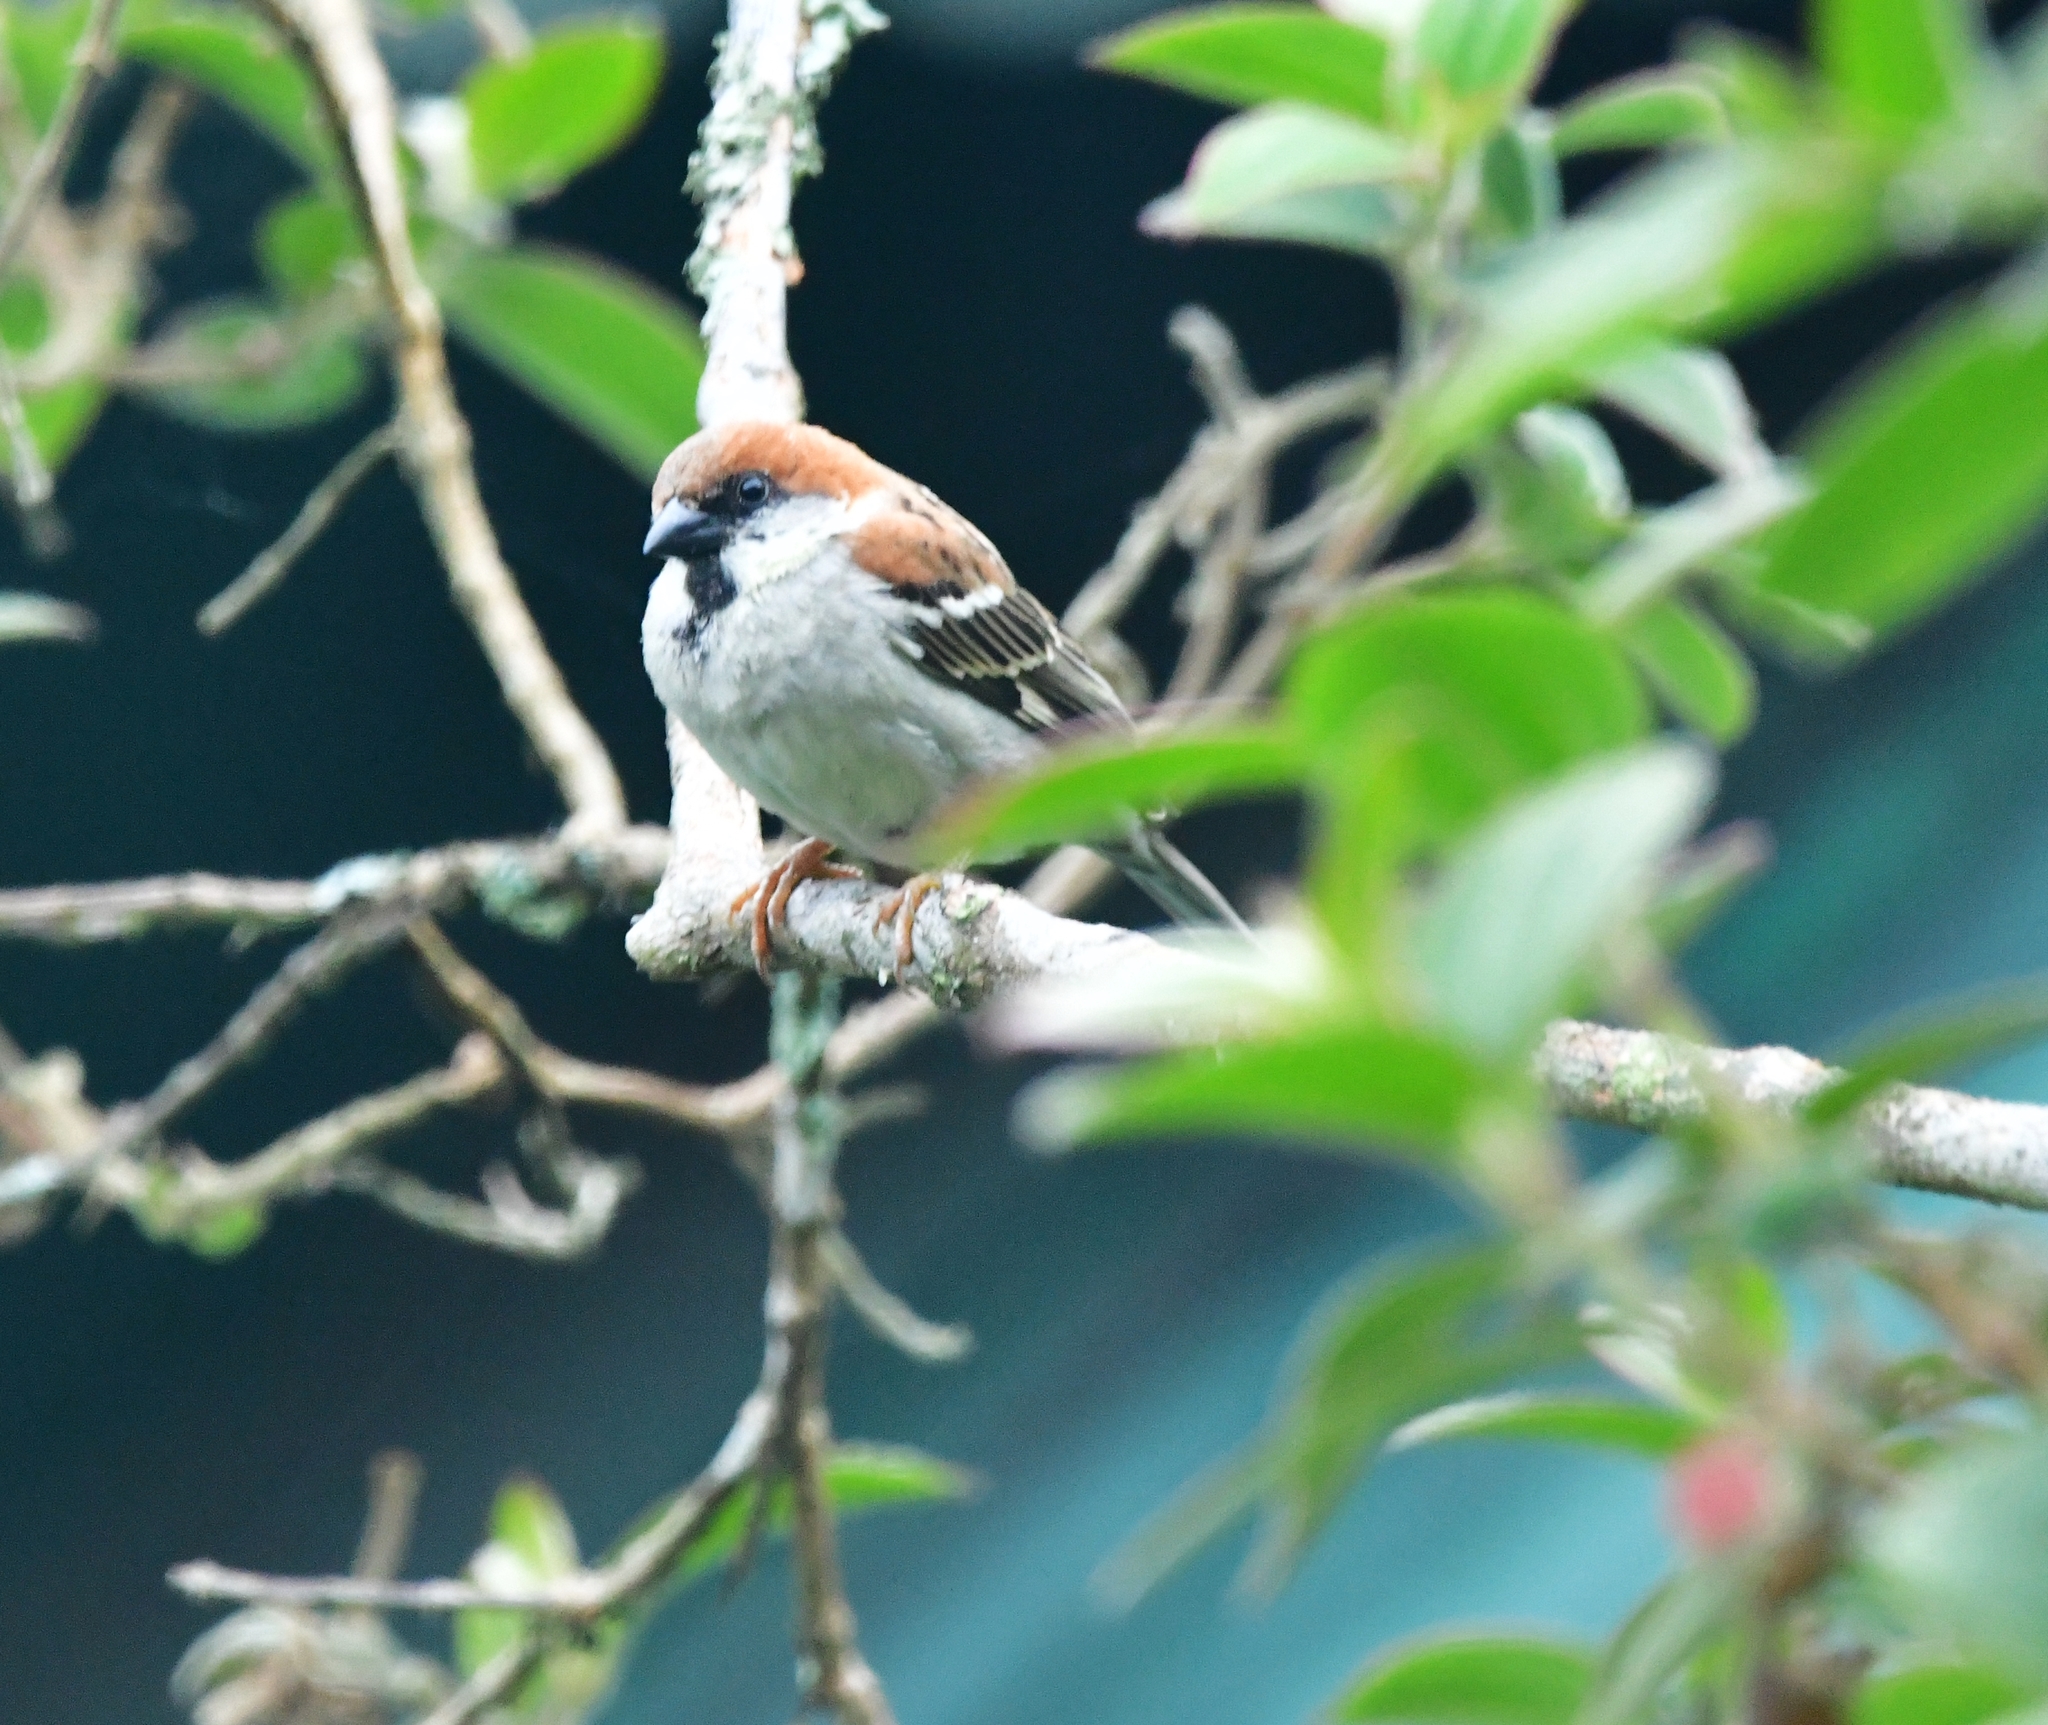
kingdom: Animalia
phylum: Chordata
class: Aves
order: Passeriformes
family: Passeridae
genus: Passer
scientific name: Passer cinnamomeus
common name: Russet sparrow
